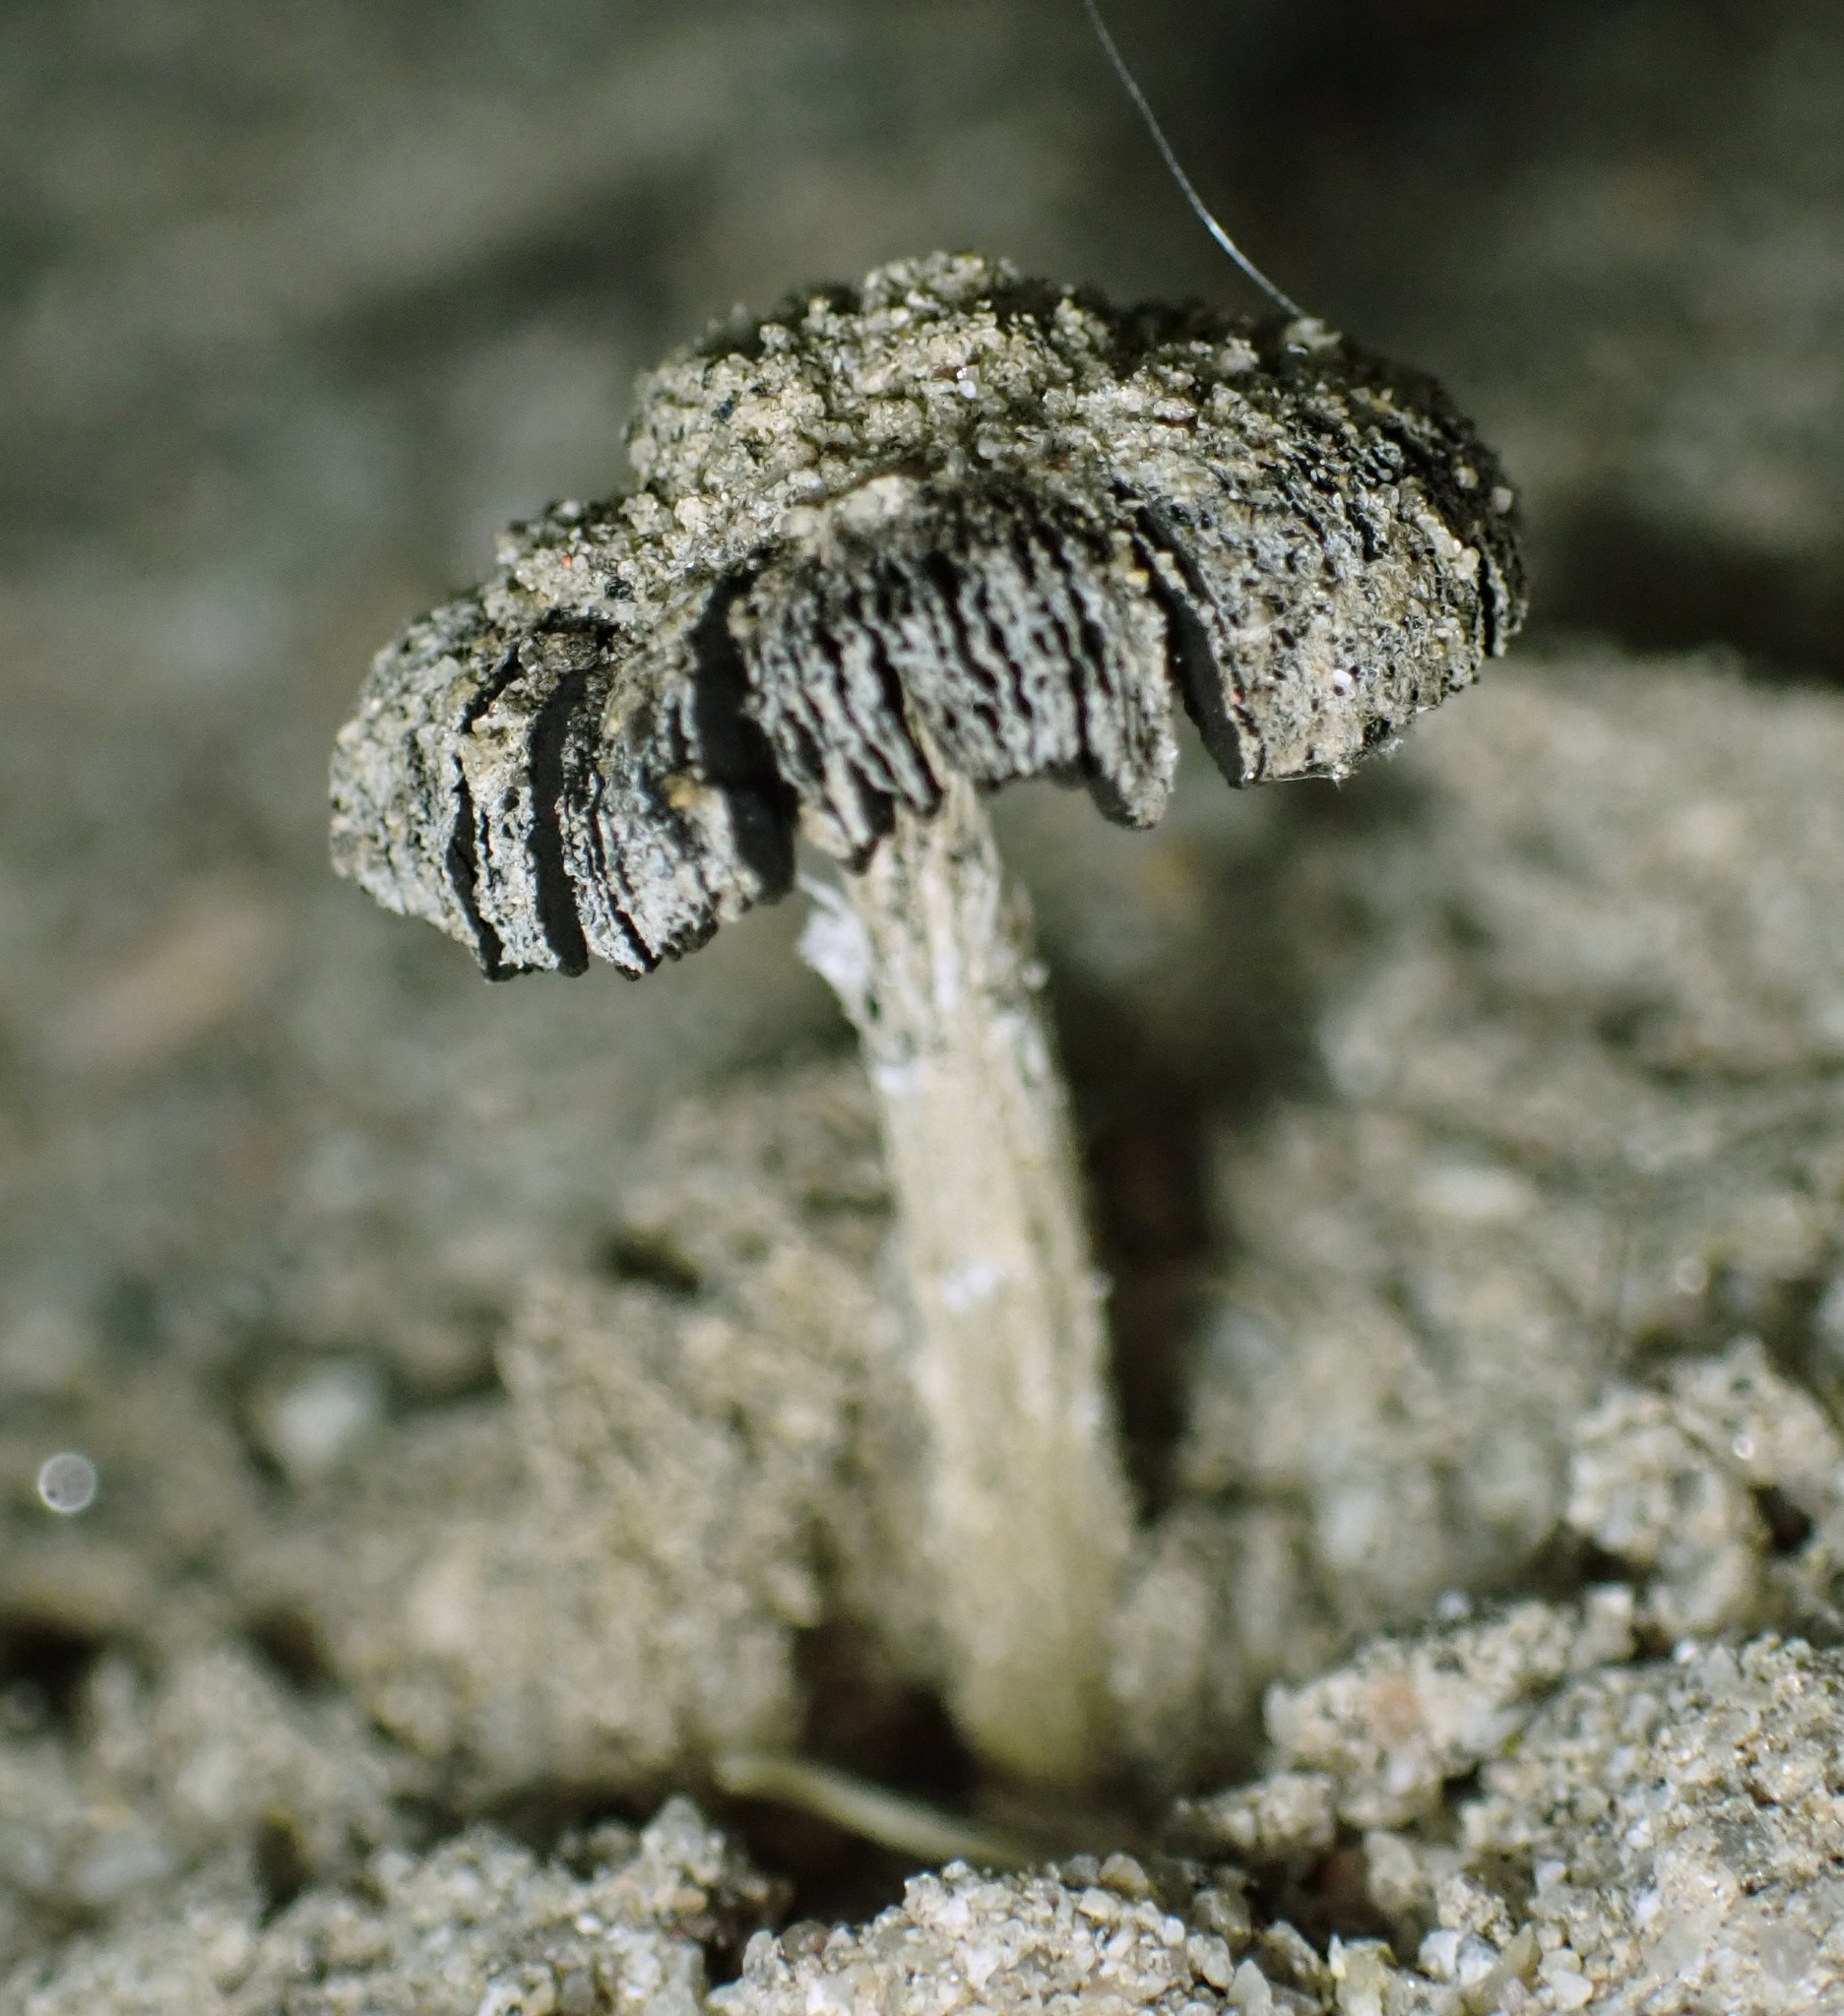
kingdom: Fungi
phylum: Basidiomycota
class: Agaricomycetes
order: Agaricales
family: Agaricaceae
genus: Montagnea
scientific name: Montagnea arenaria
